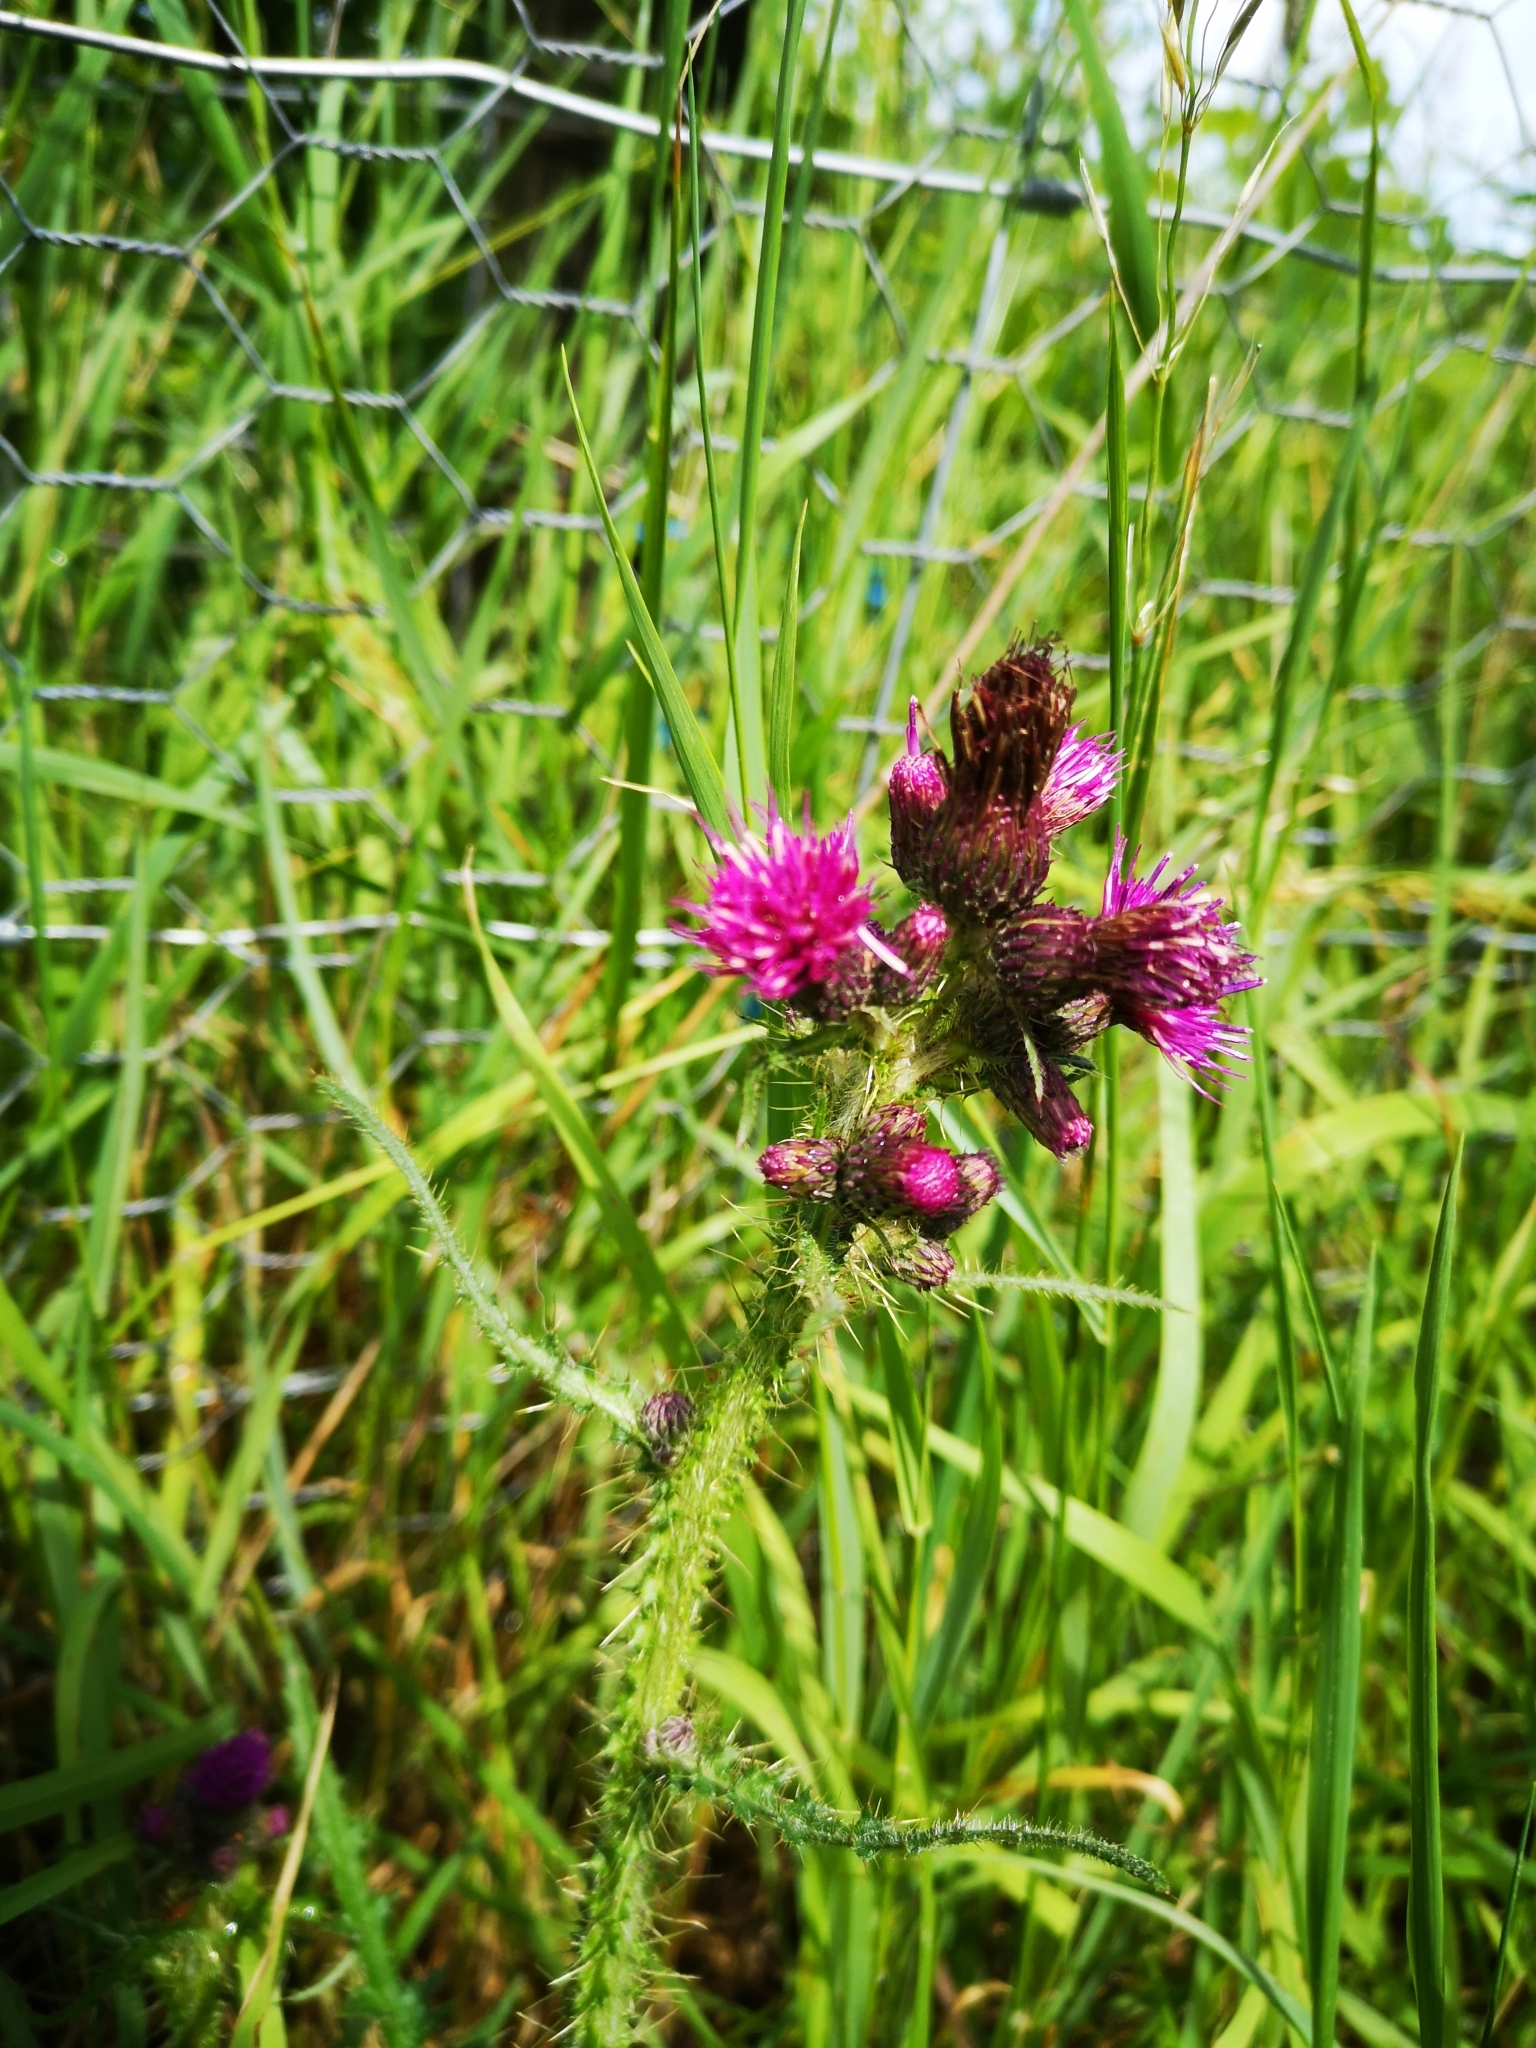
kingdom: Plantae
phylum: Tracheophyta
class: Magnoliopsida
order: Asterales
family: Asteraceae
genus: Cirsium
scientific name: Cirsium palustre
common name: Marsh thistle
